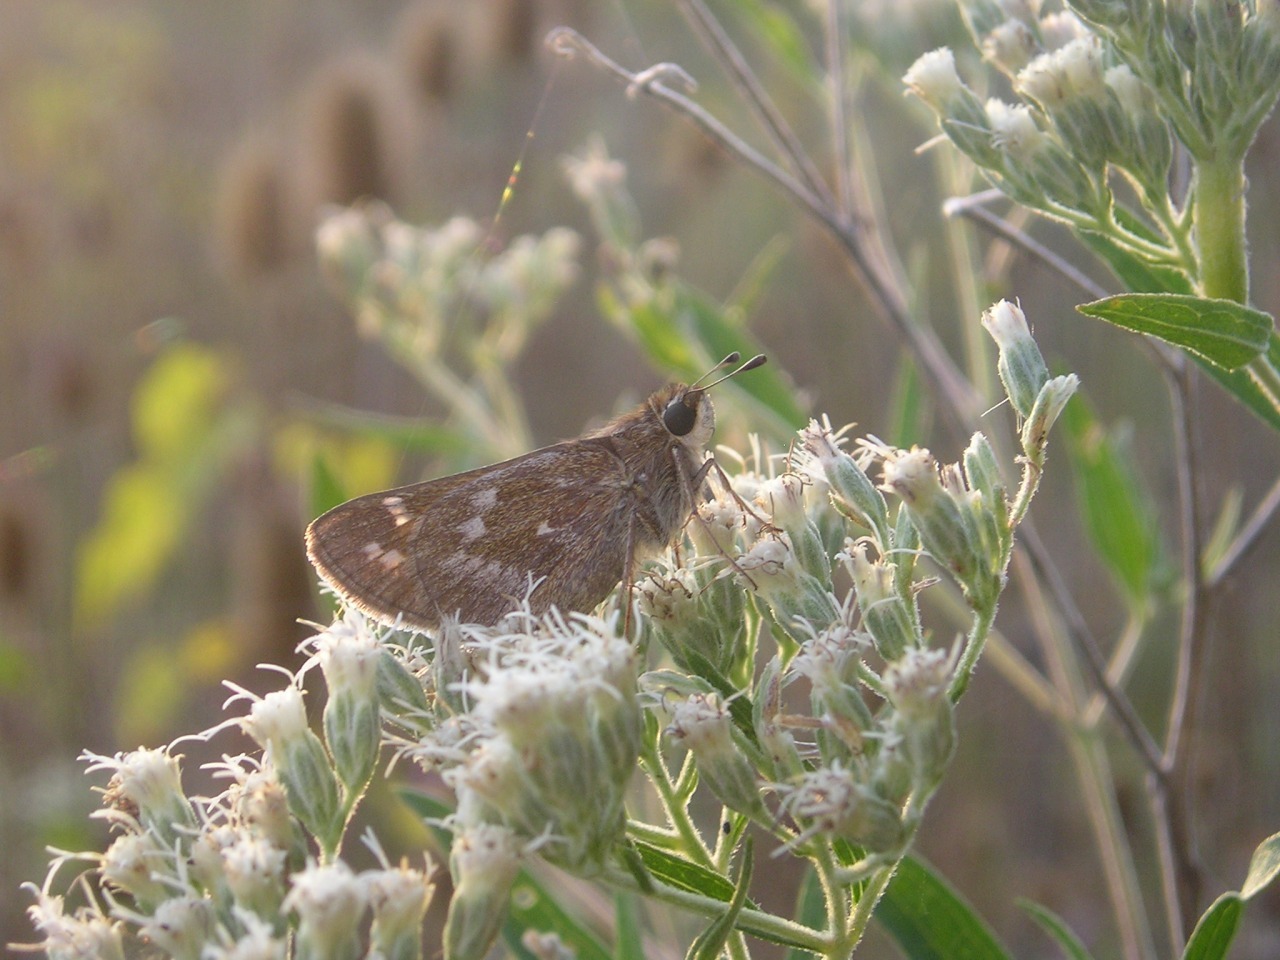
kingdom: Animalia
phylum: Arthropoda
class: Insecta
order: Lepidoptera
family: Hesperiidae
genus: Atalopedes
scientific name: Atalopedes
